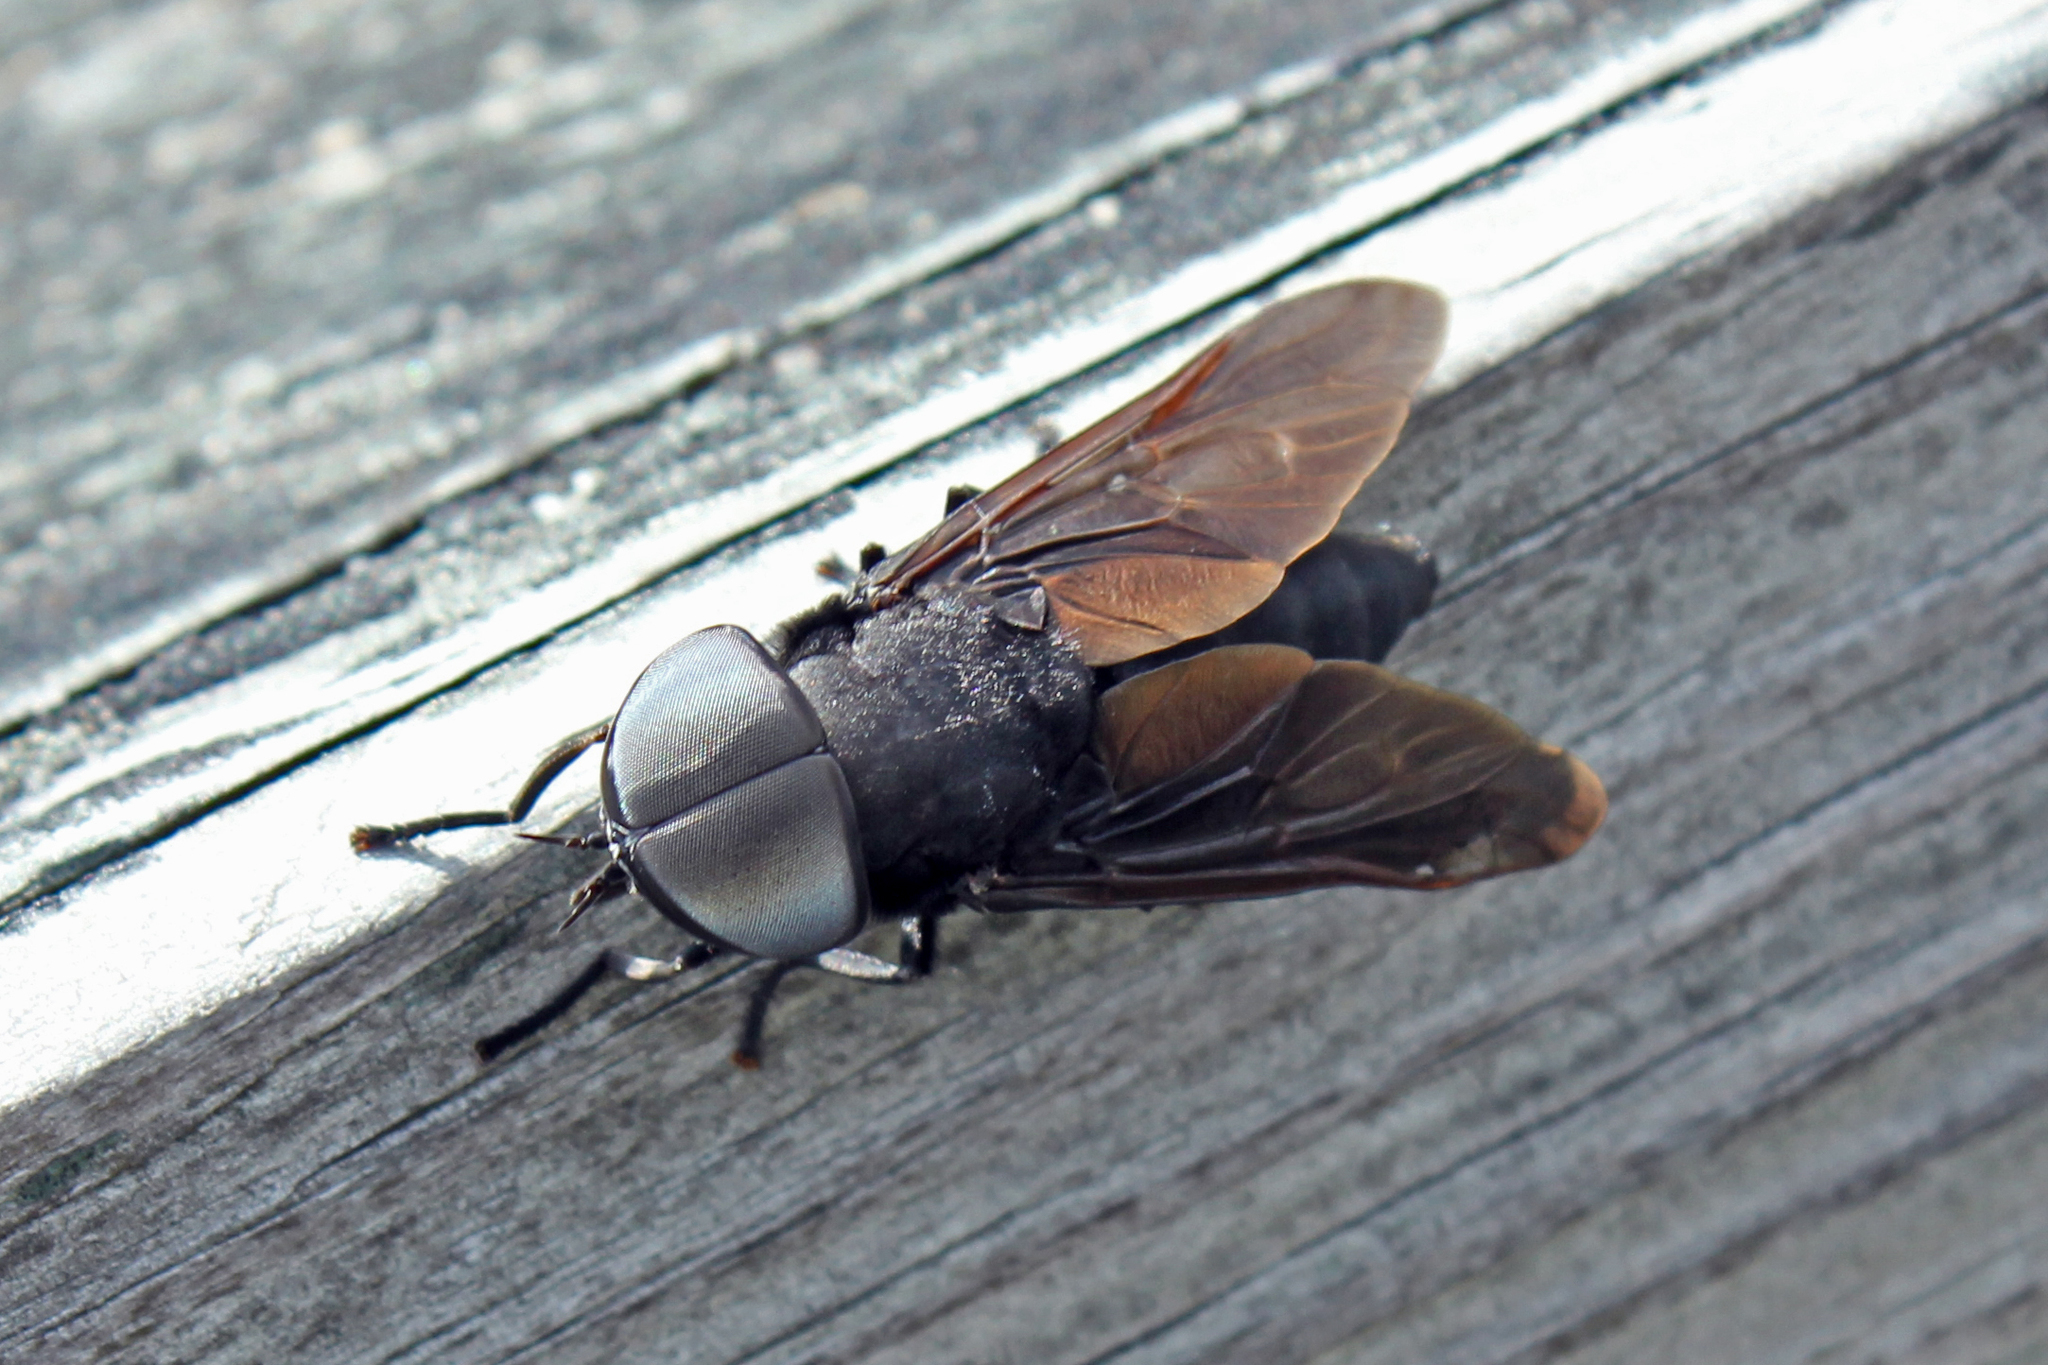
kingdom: Animalia
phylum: Arthropoda
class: Insecta
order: Diptera
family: Tabanidae
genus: Tabanus
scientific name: Tabanus atratus
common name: Black horse fly
